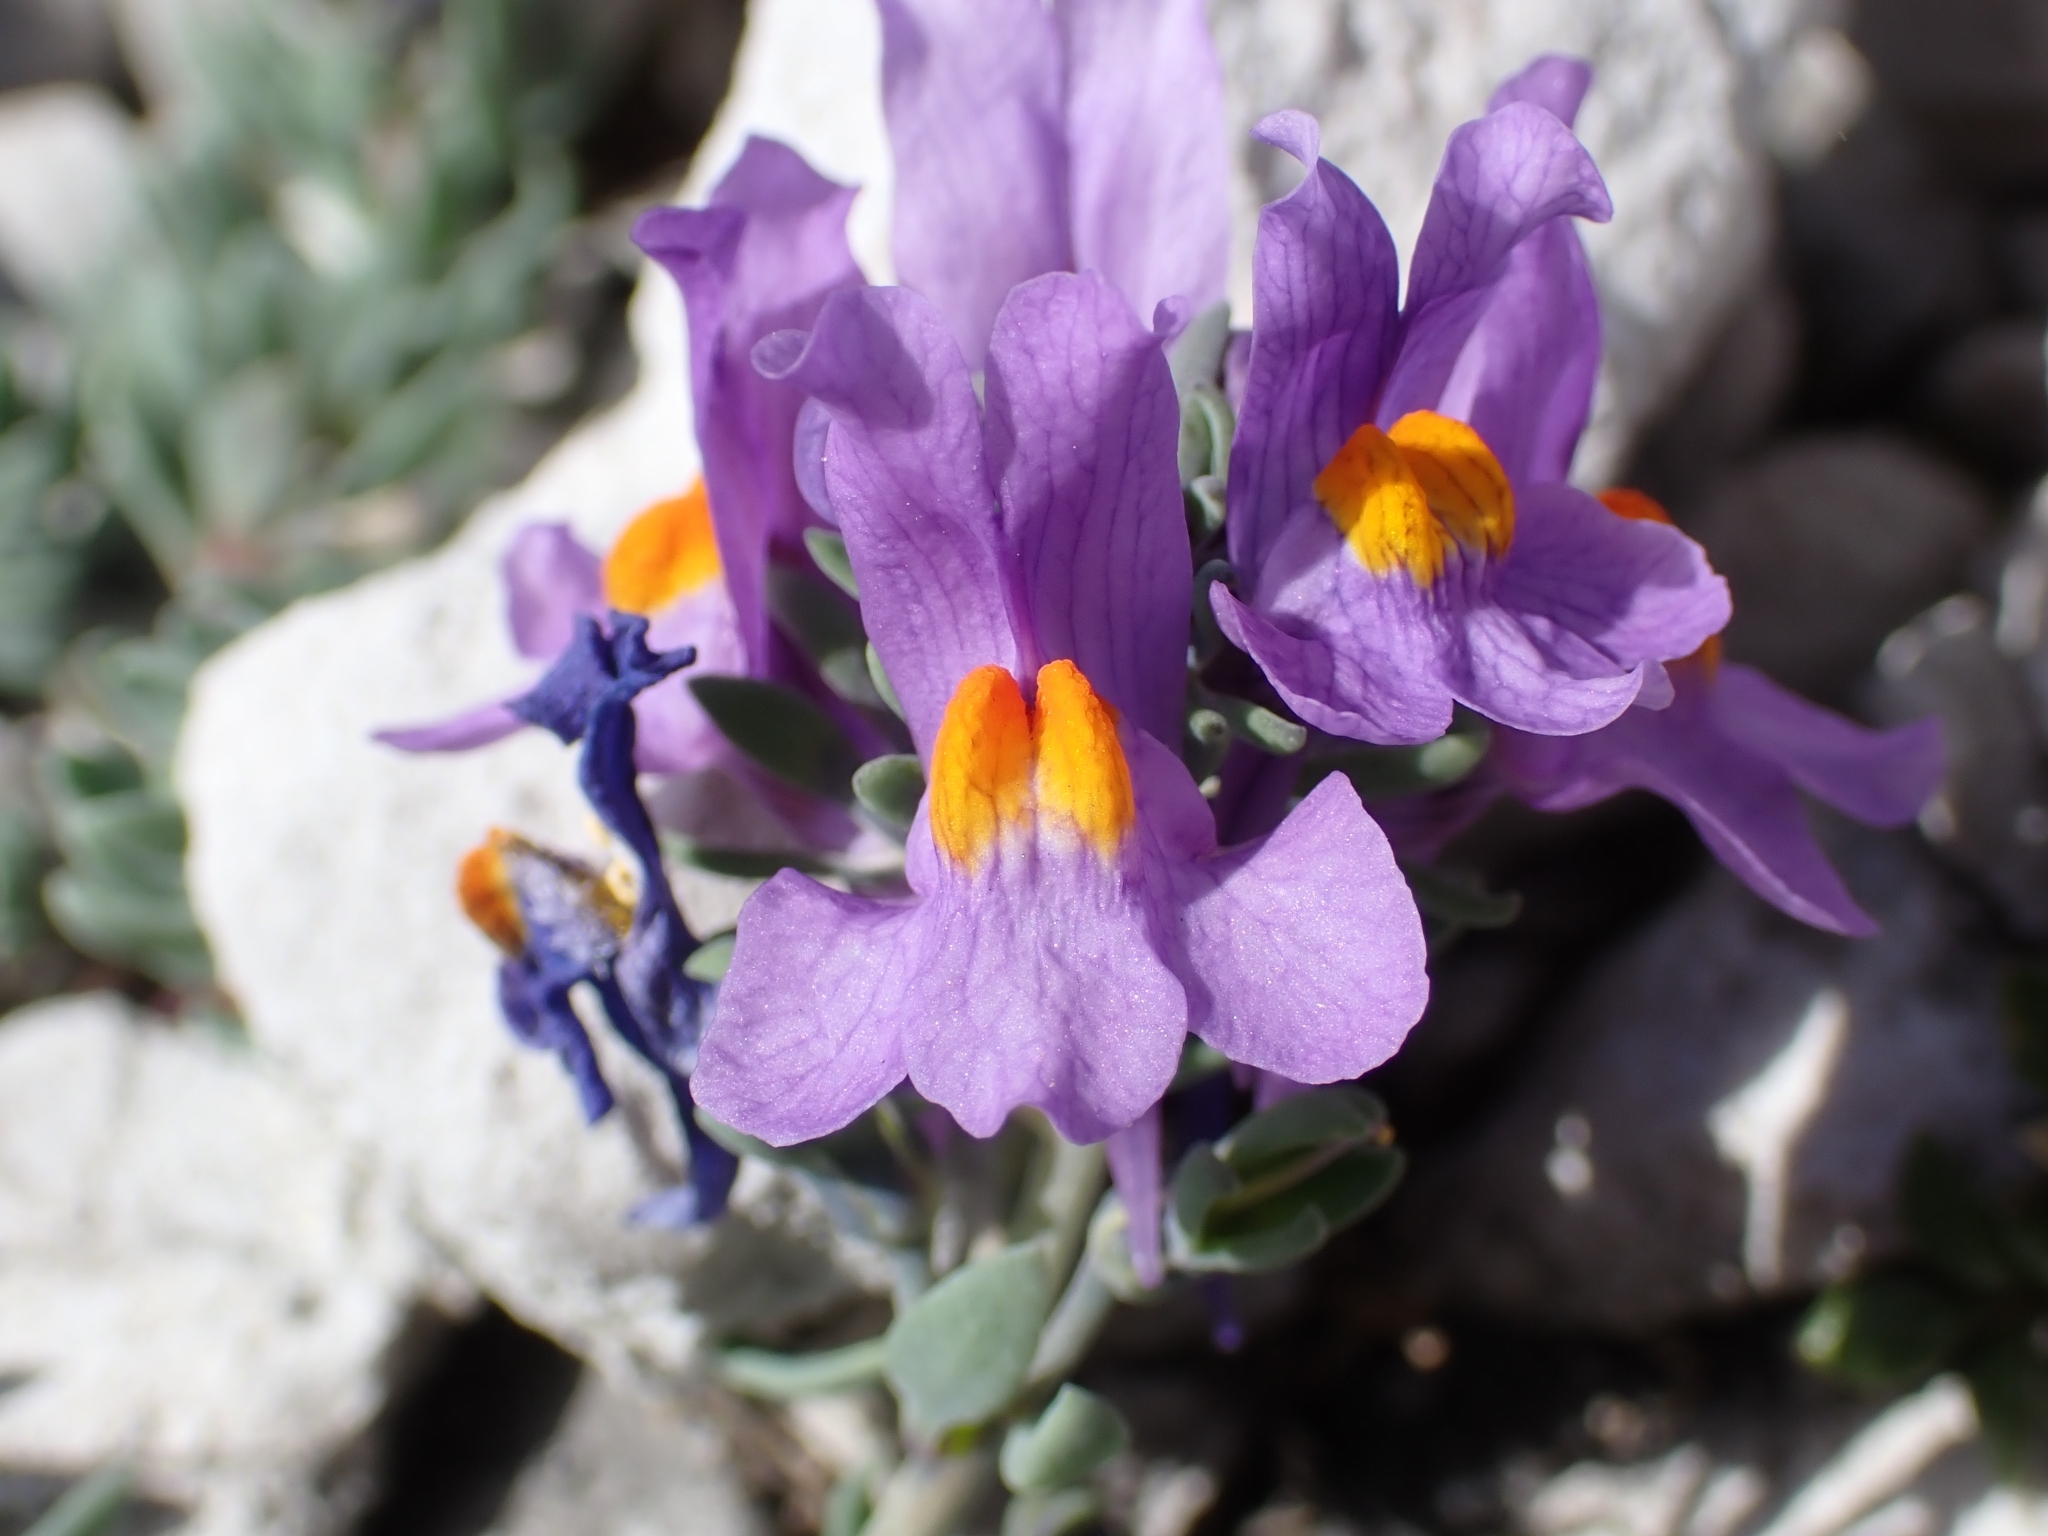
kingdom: Plantae
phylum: Tracheophyta
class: Magnoliopsida
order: Lamiales
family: Plantaginaceae
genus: Linaria
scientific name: Linaria alpina
